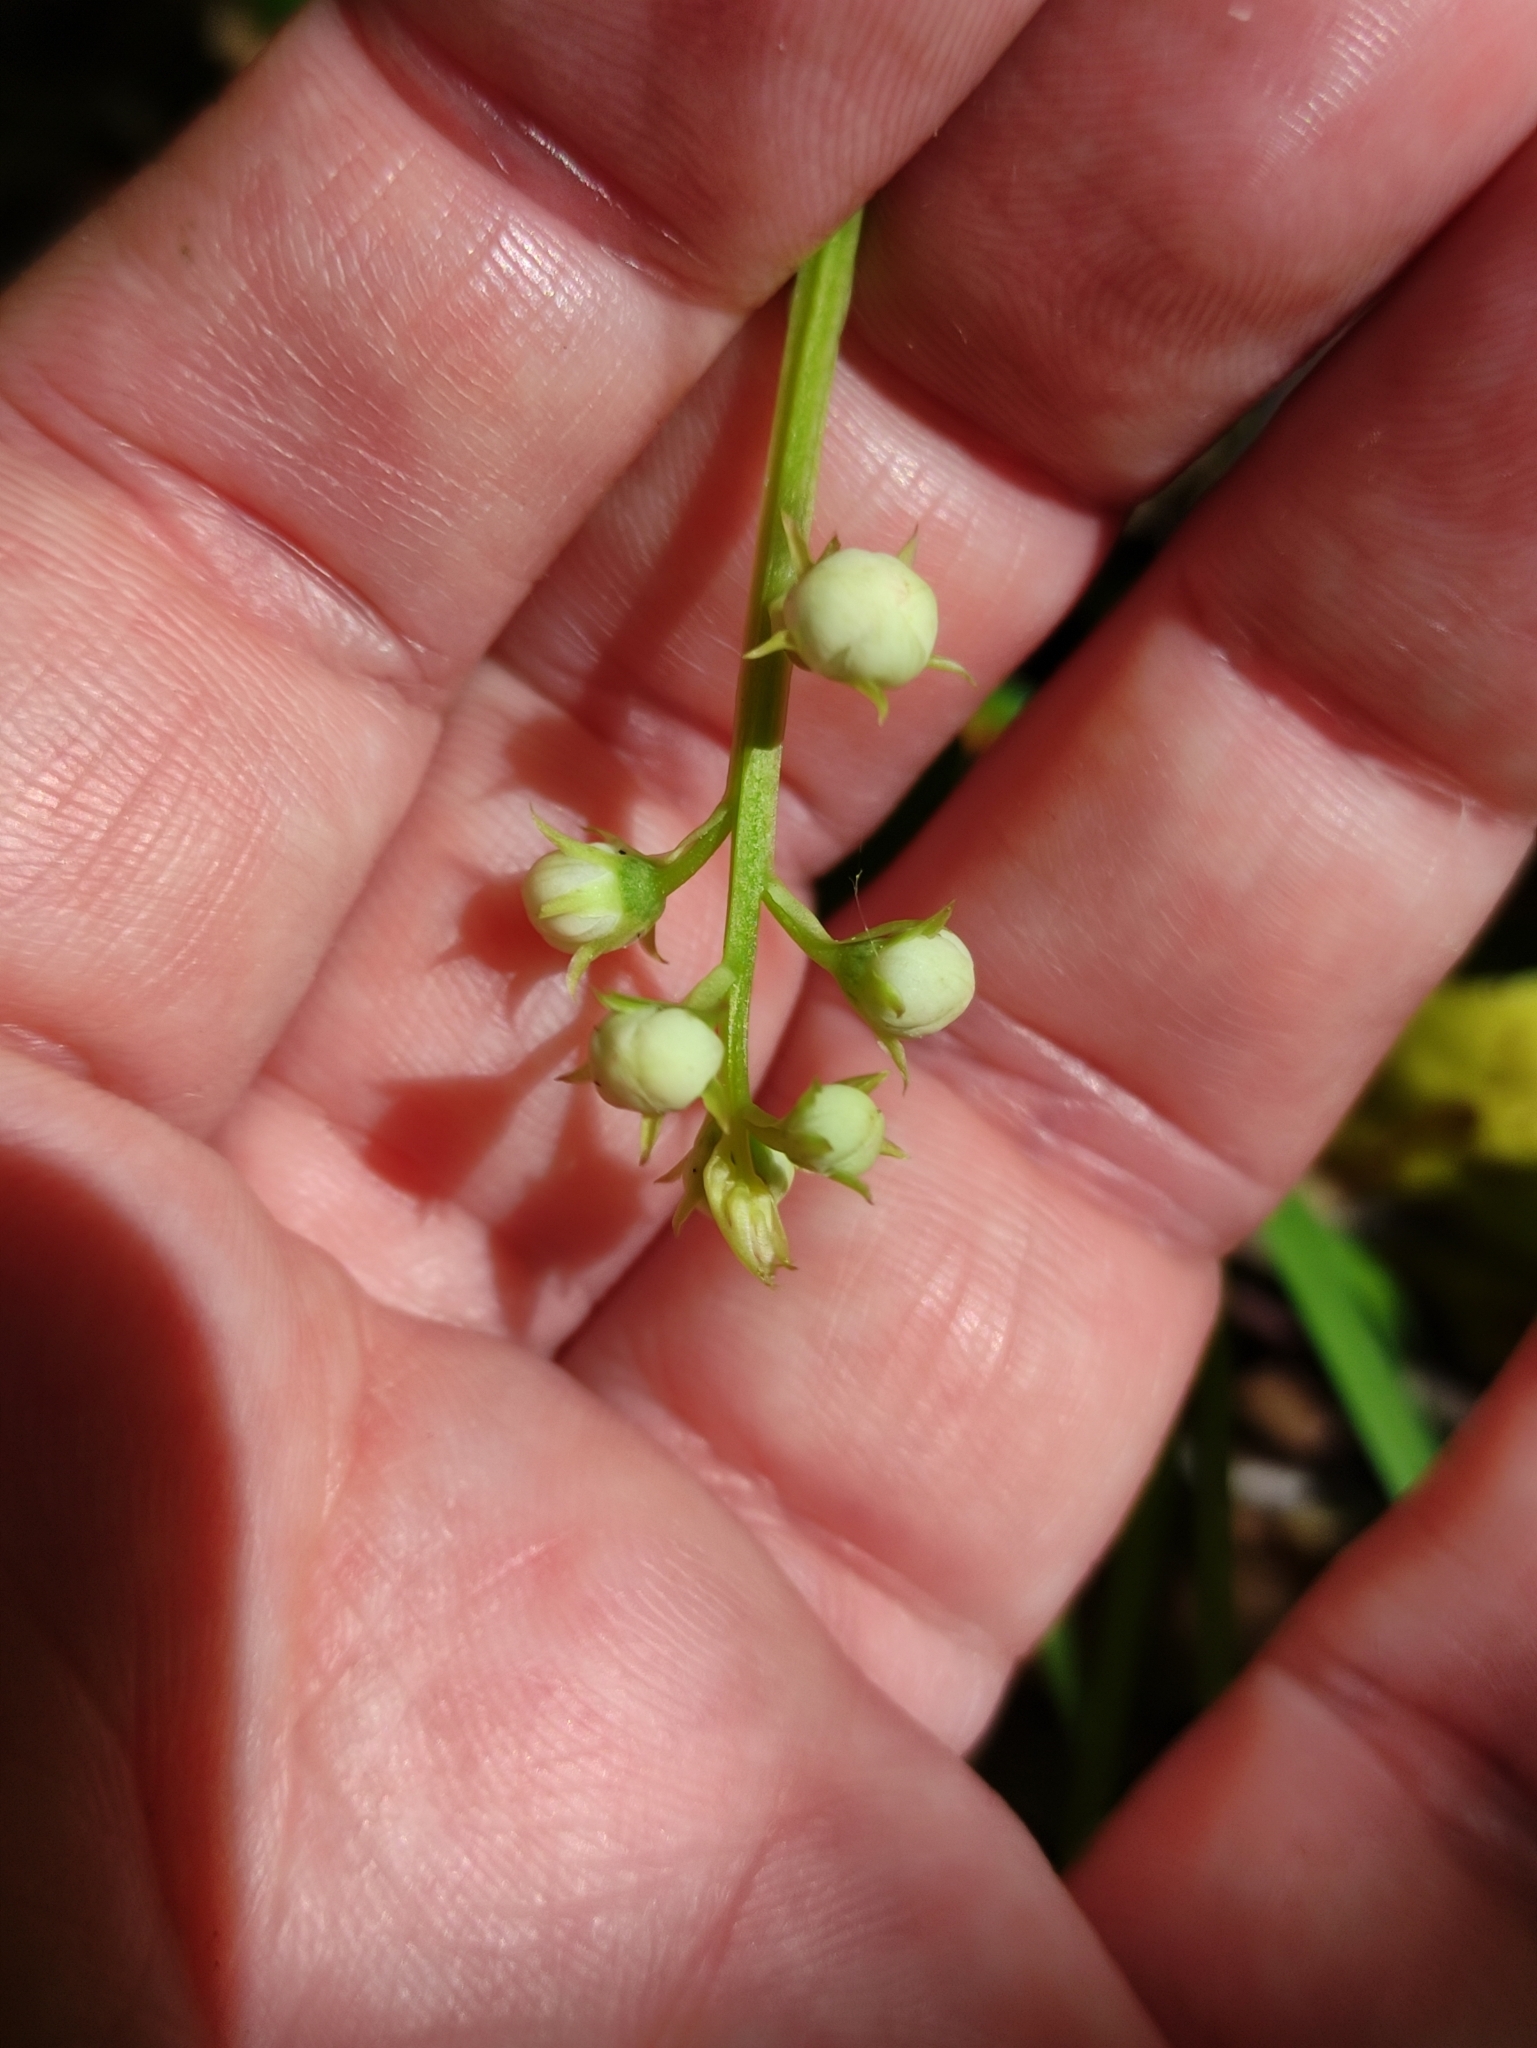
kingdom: Plantae
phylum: Tracheophyta
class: Magnoliopsida
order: Ericales
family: Ericaceae
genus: Pyrola
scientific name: Pyrola rotundifolia
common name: Round-leaved wintergreen
